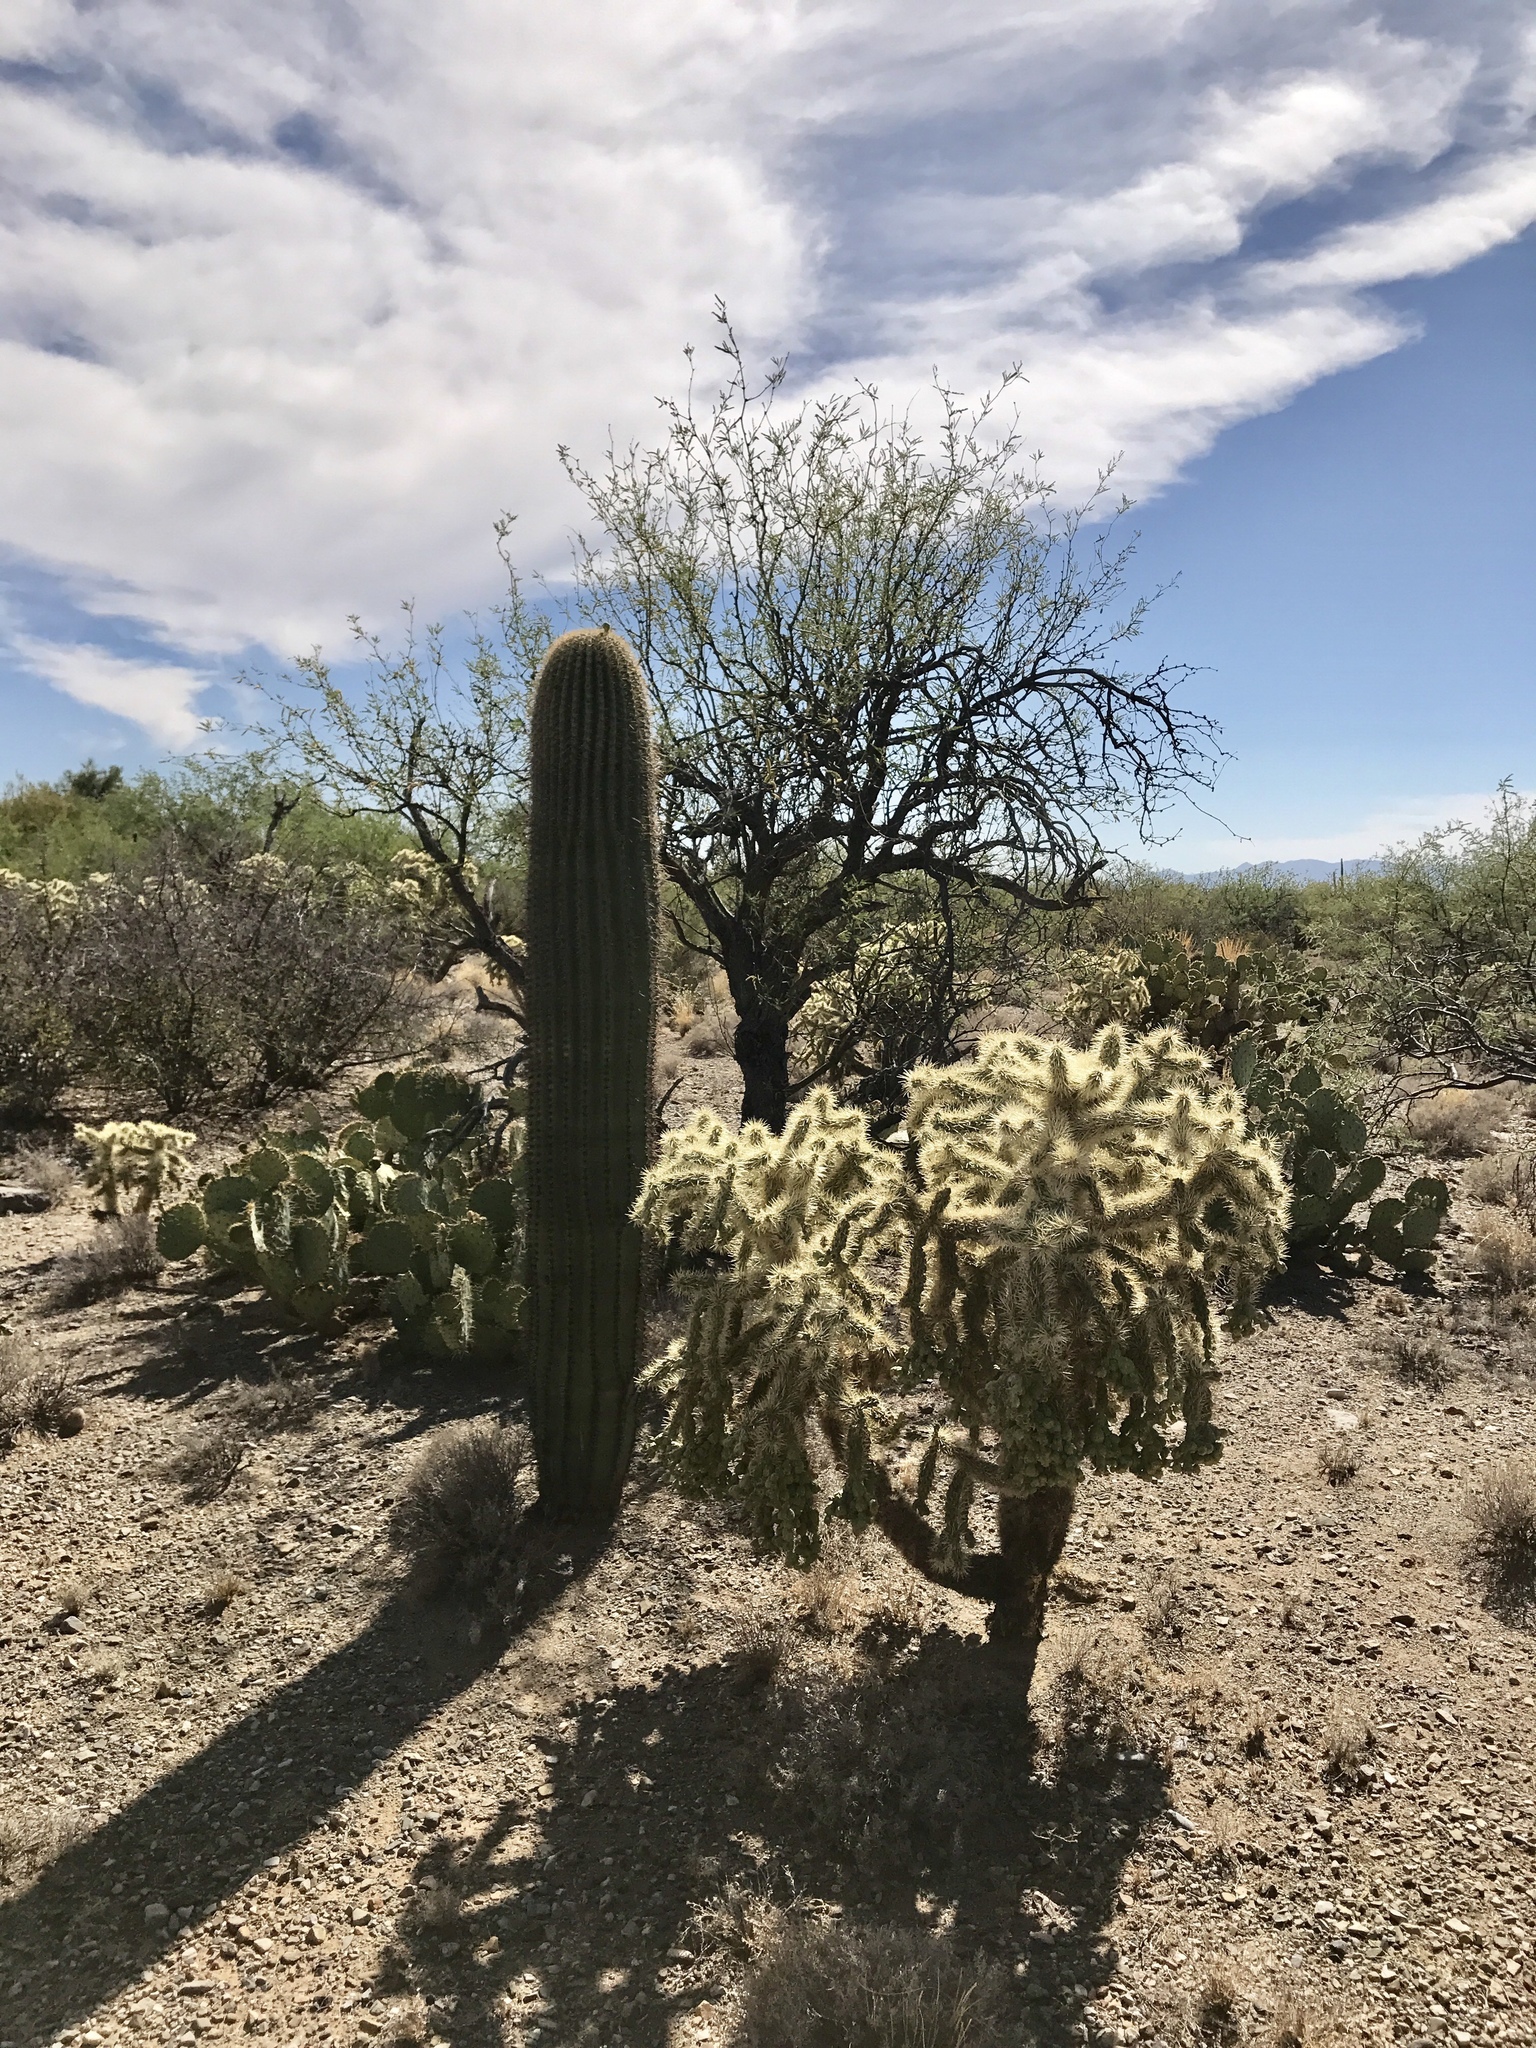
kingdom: Plantae
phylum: Tracheophyta
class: Magnoliopsida
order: Caryophyllales
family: Cactaceae
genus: Carnegiea
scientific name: Carnegiea gigantea
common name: Saguaro
